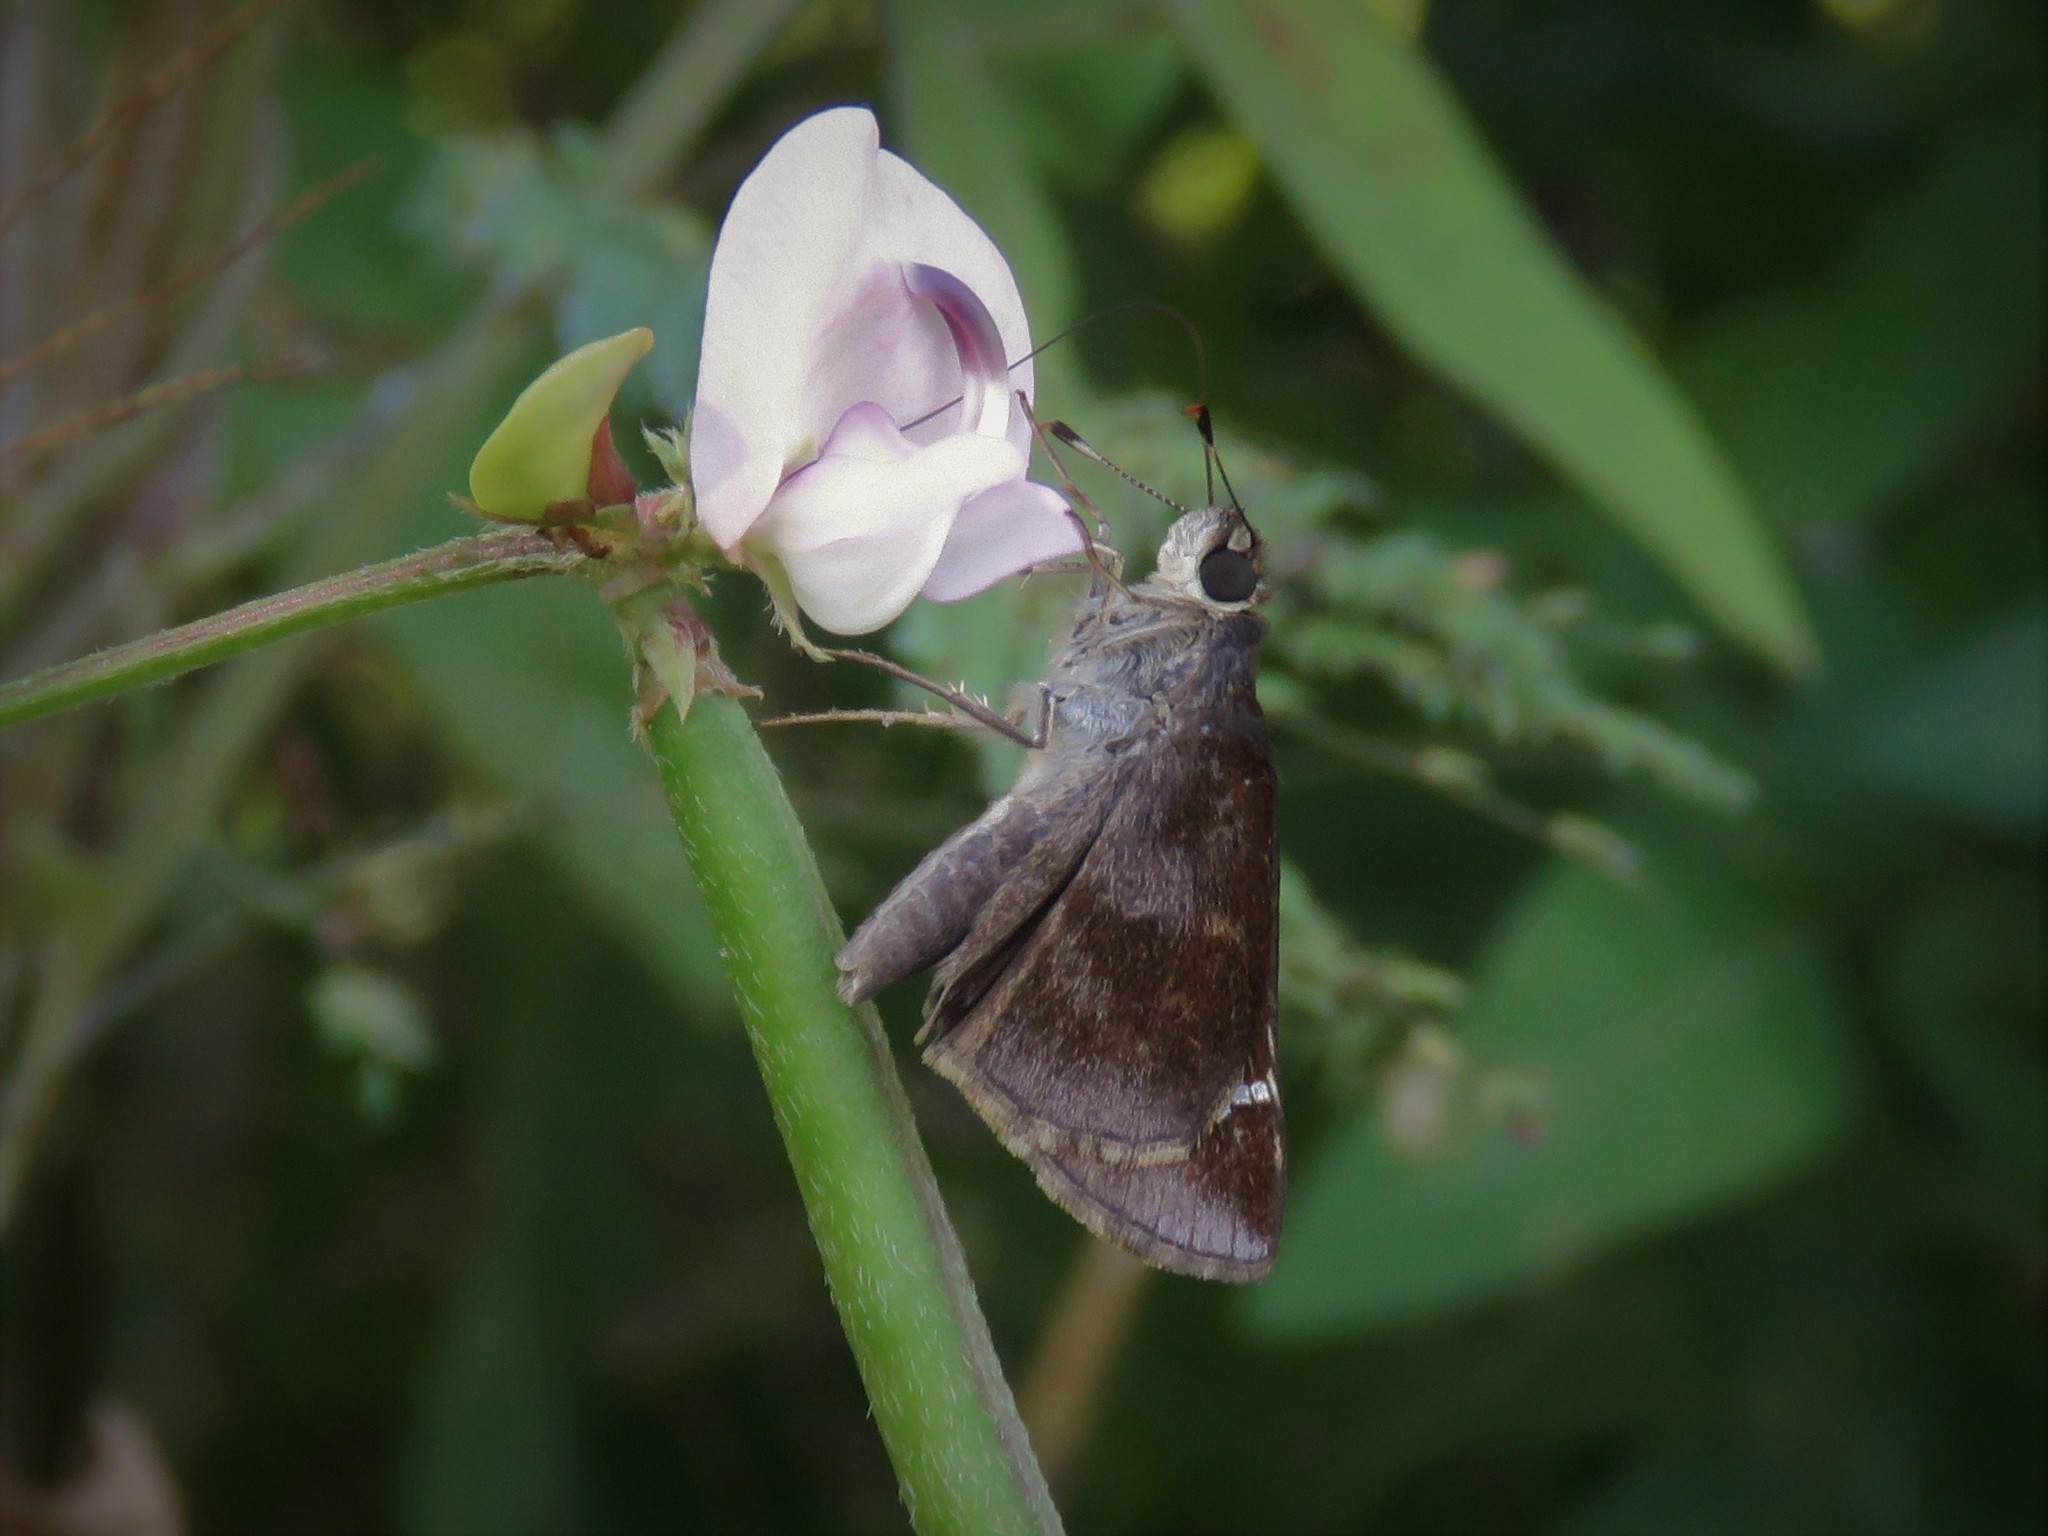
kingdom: Animalia
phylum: Arthropoda
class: Insecta
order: Lepidoptera
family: Hesperiidae
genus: Lerema
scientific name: Lerema accius
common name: Clouded skipper
